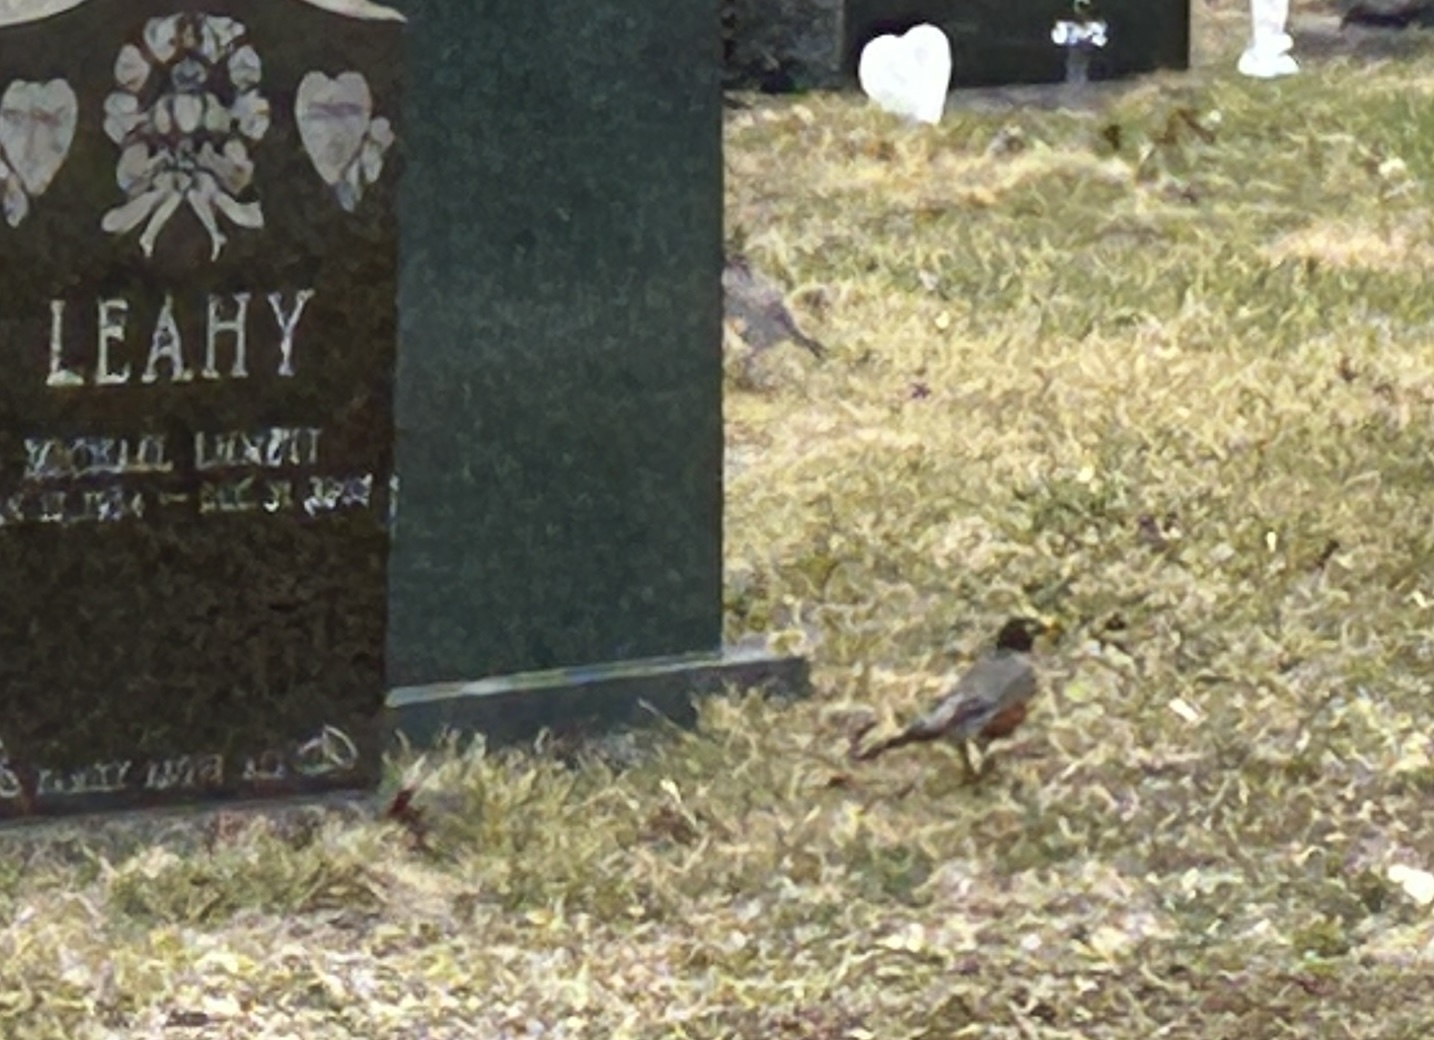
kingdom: Animalia
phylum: Chordata
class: Aves
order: Passeriformes
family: Turdidae
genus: Turdus
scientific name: Turdus migratorius
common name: American robin
